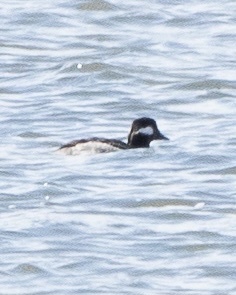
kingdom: Animalia
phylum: Chordata
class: Aves
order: Anseriformes
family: Anatidae
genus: Bucephala
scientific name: Bucephala albeola
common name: Bufflehead
